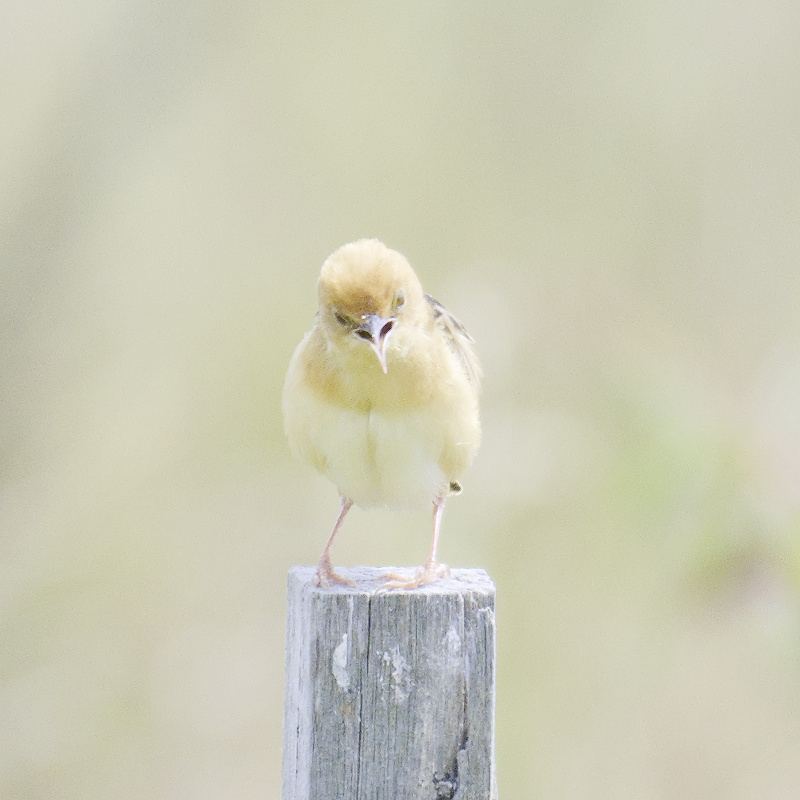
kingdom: Animalia
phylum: Chordata
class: Aves
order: Passeriformes
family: Cisticolidae
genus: Cisticola
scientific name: Cisticola exilis
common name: Golden-headed cisticola
